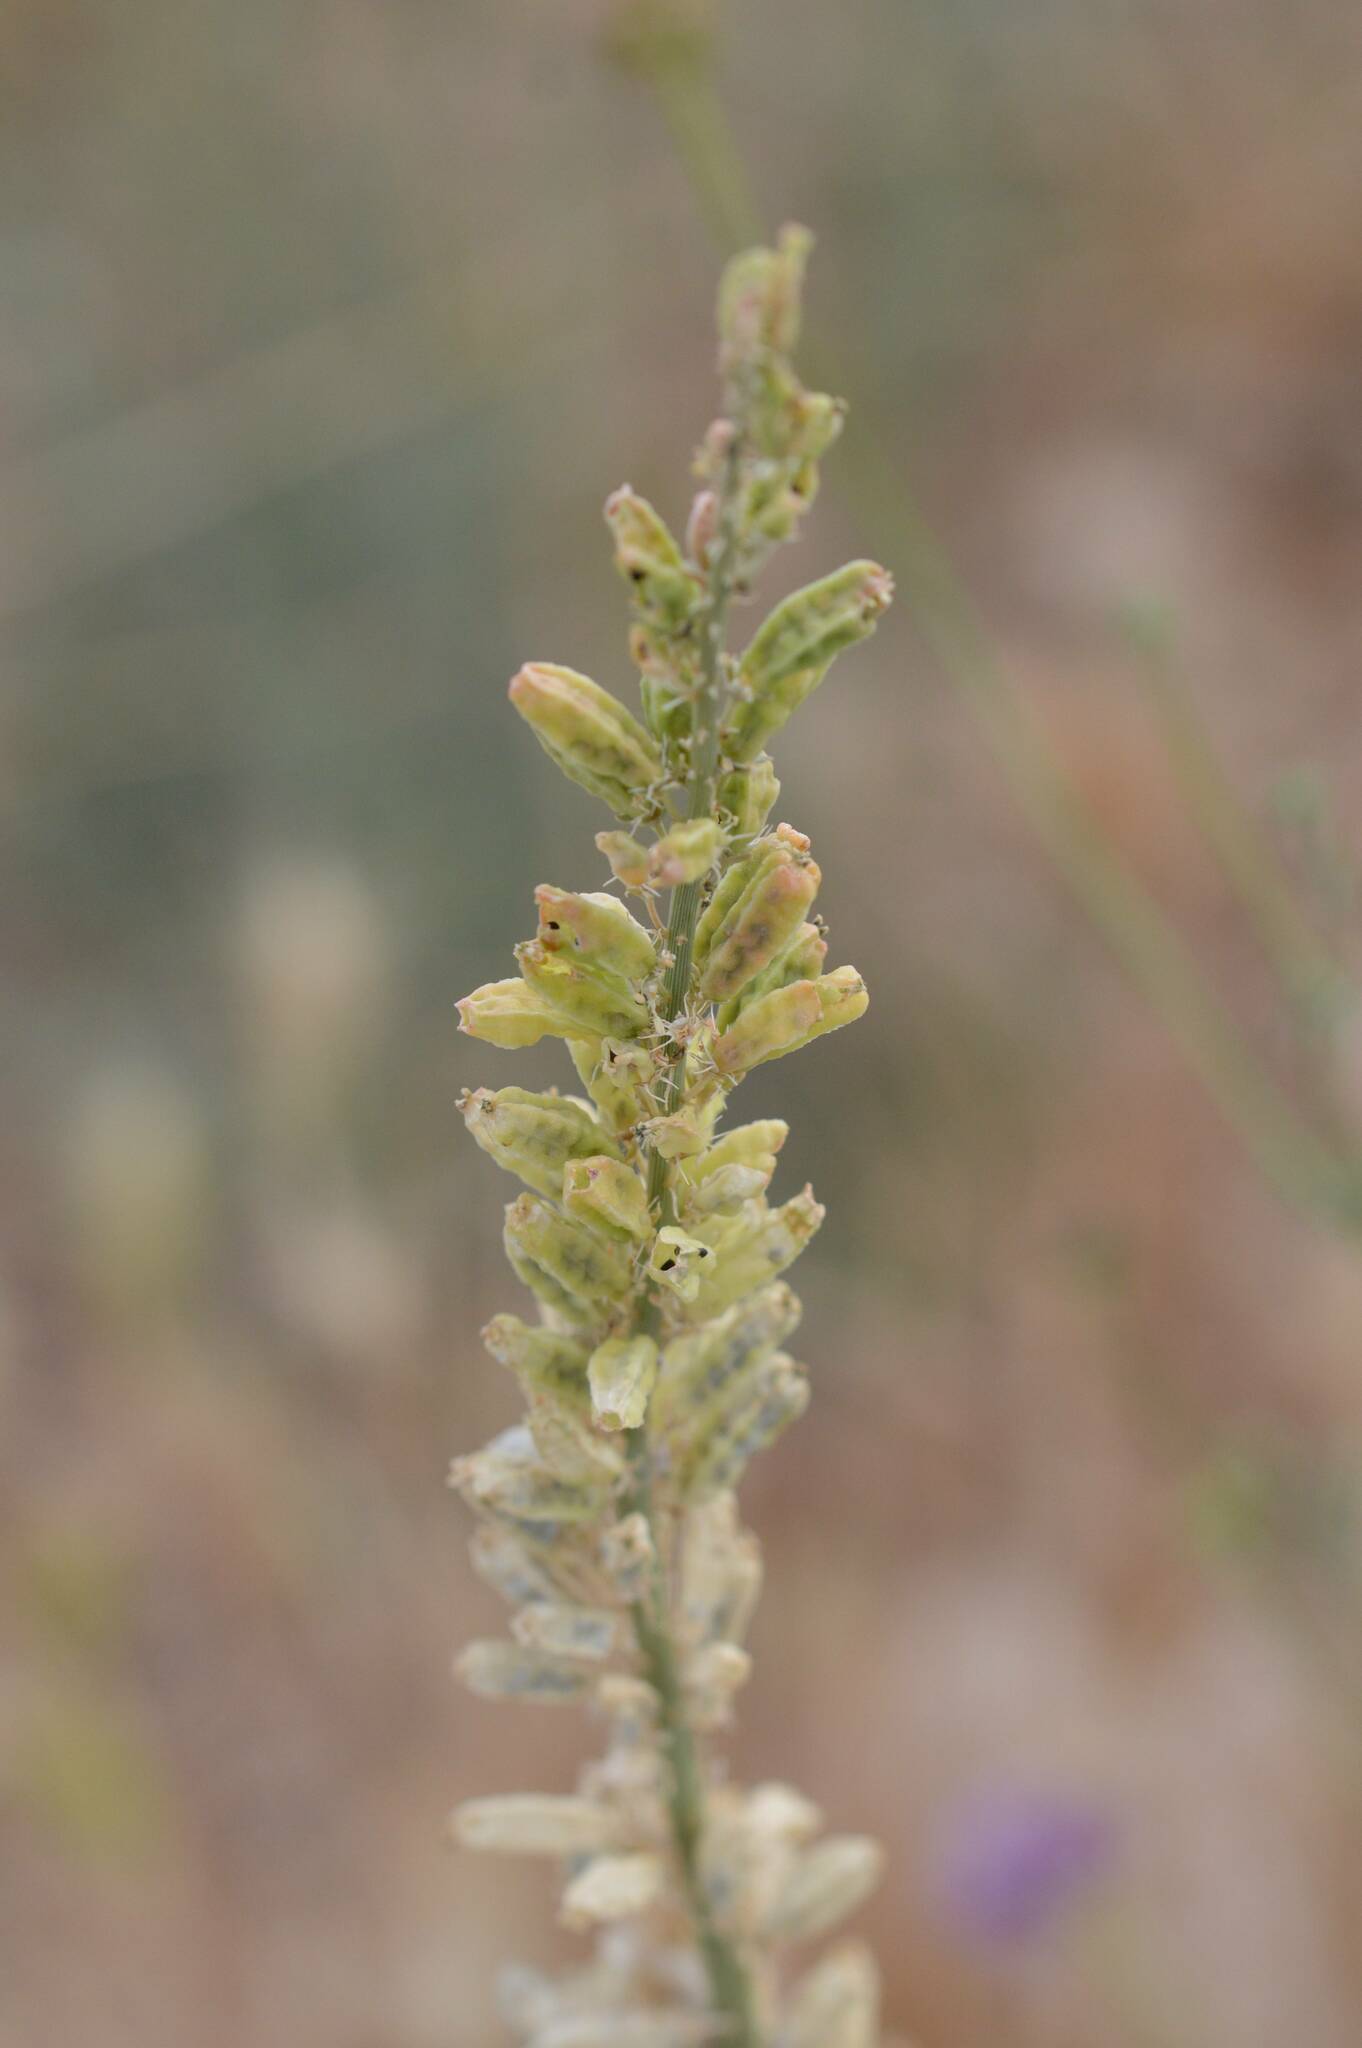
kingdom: Plantae
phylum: Tracheophyta
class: Magnoliopsida
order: Brassicales
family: Resedaceae
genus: Reseda
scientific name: Reseda alba
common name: White mignonette
